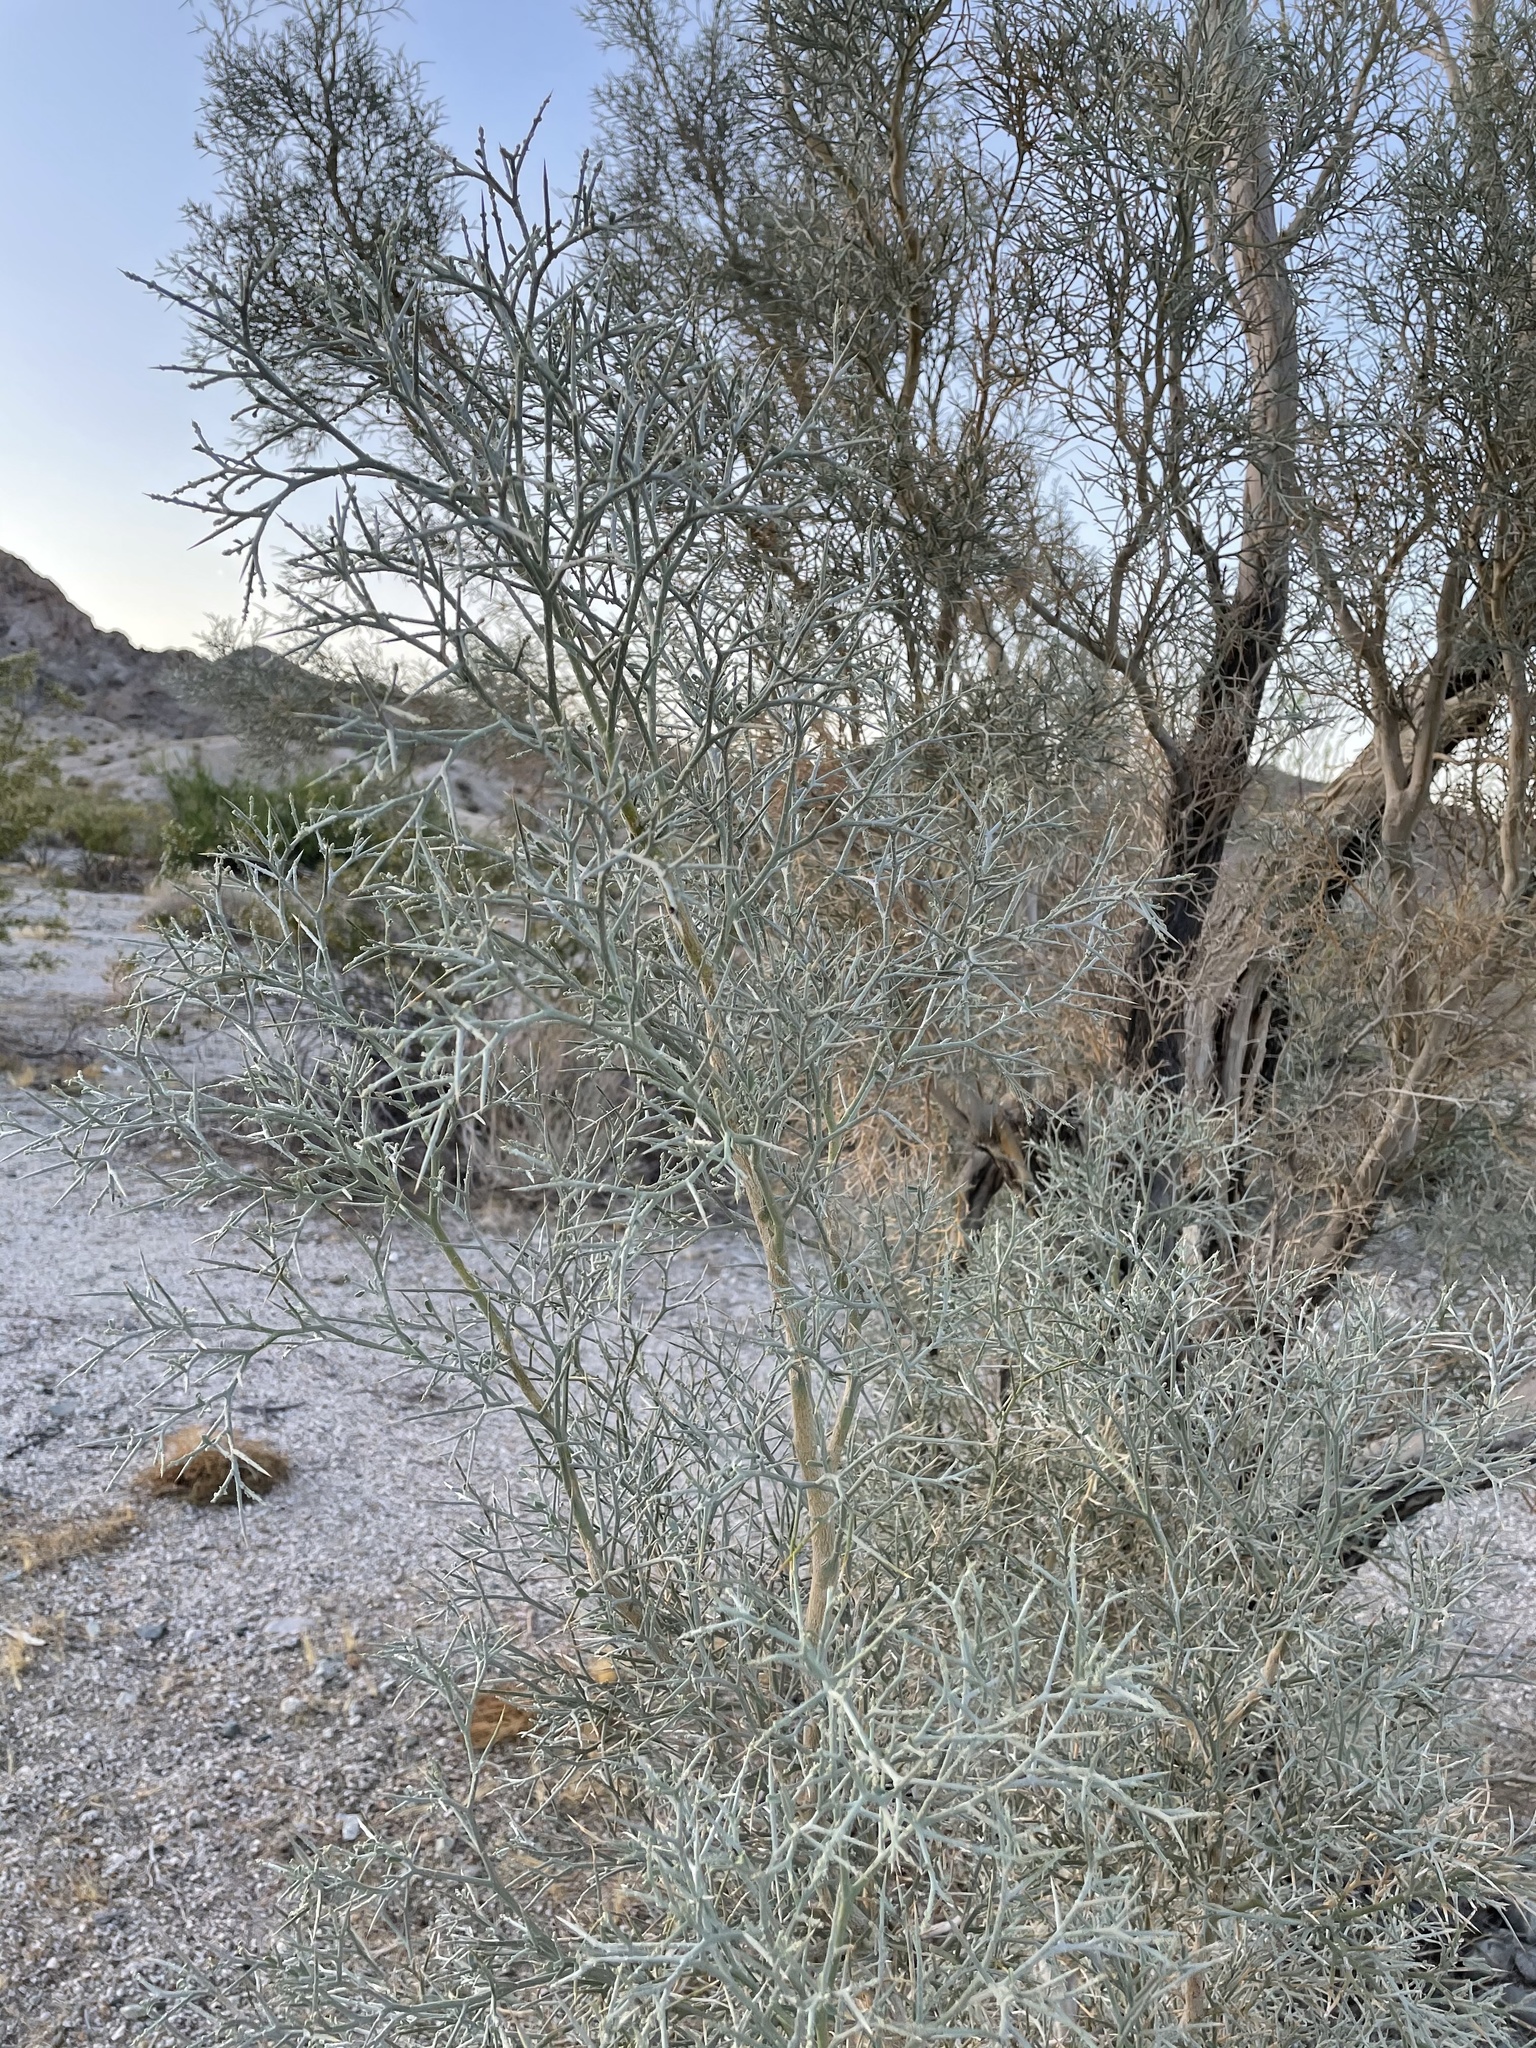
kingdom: Plantae
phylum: Tracheophyta
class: Magnoliopsida
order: Fabales
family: Fabaceae
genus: Psorothamnus
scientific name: Psorothamnus spinosus
